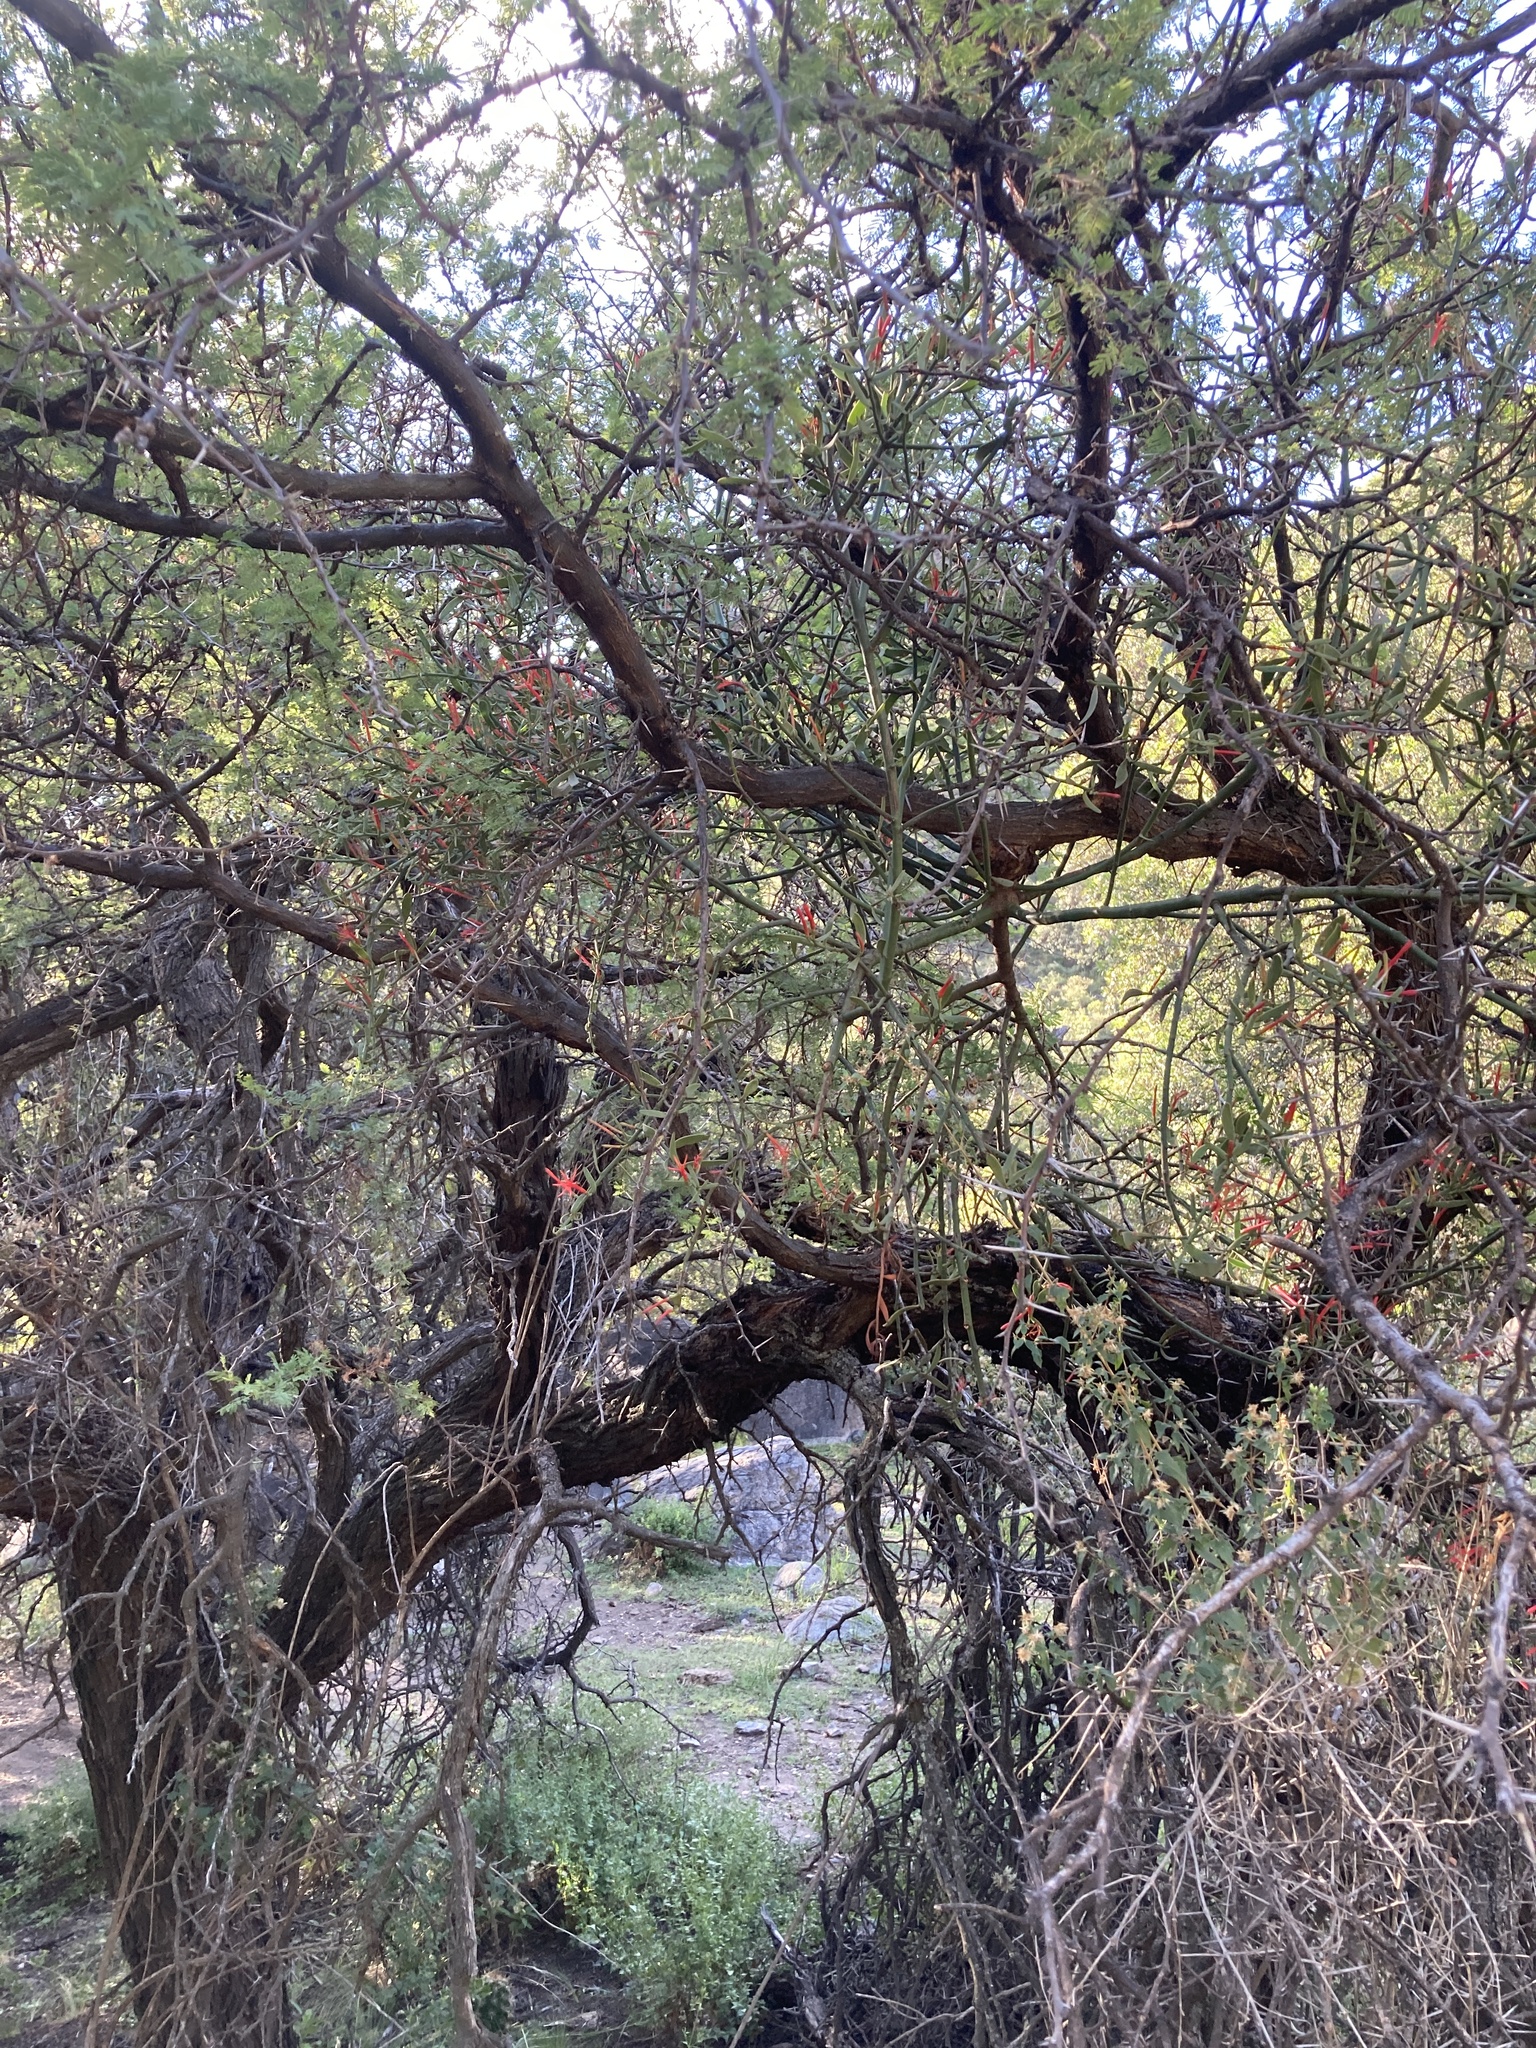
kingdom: Plantae
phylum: Tracheophyta
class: Magnoliopsida
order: Santalales
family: Loranthaceae
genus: Ligaria
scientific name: Ligaria cuneifolia
